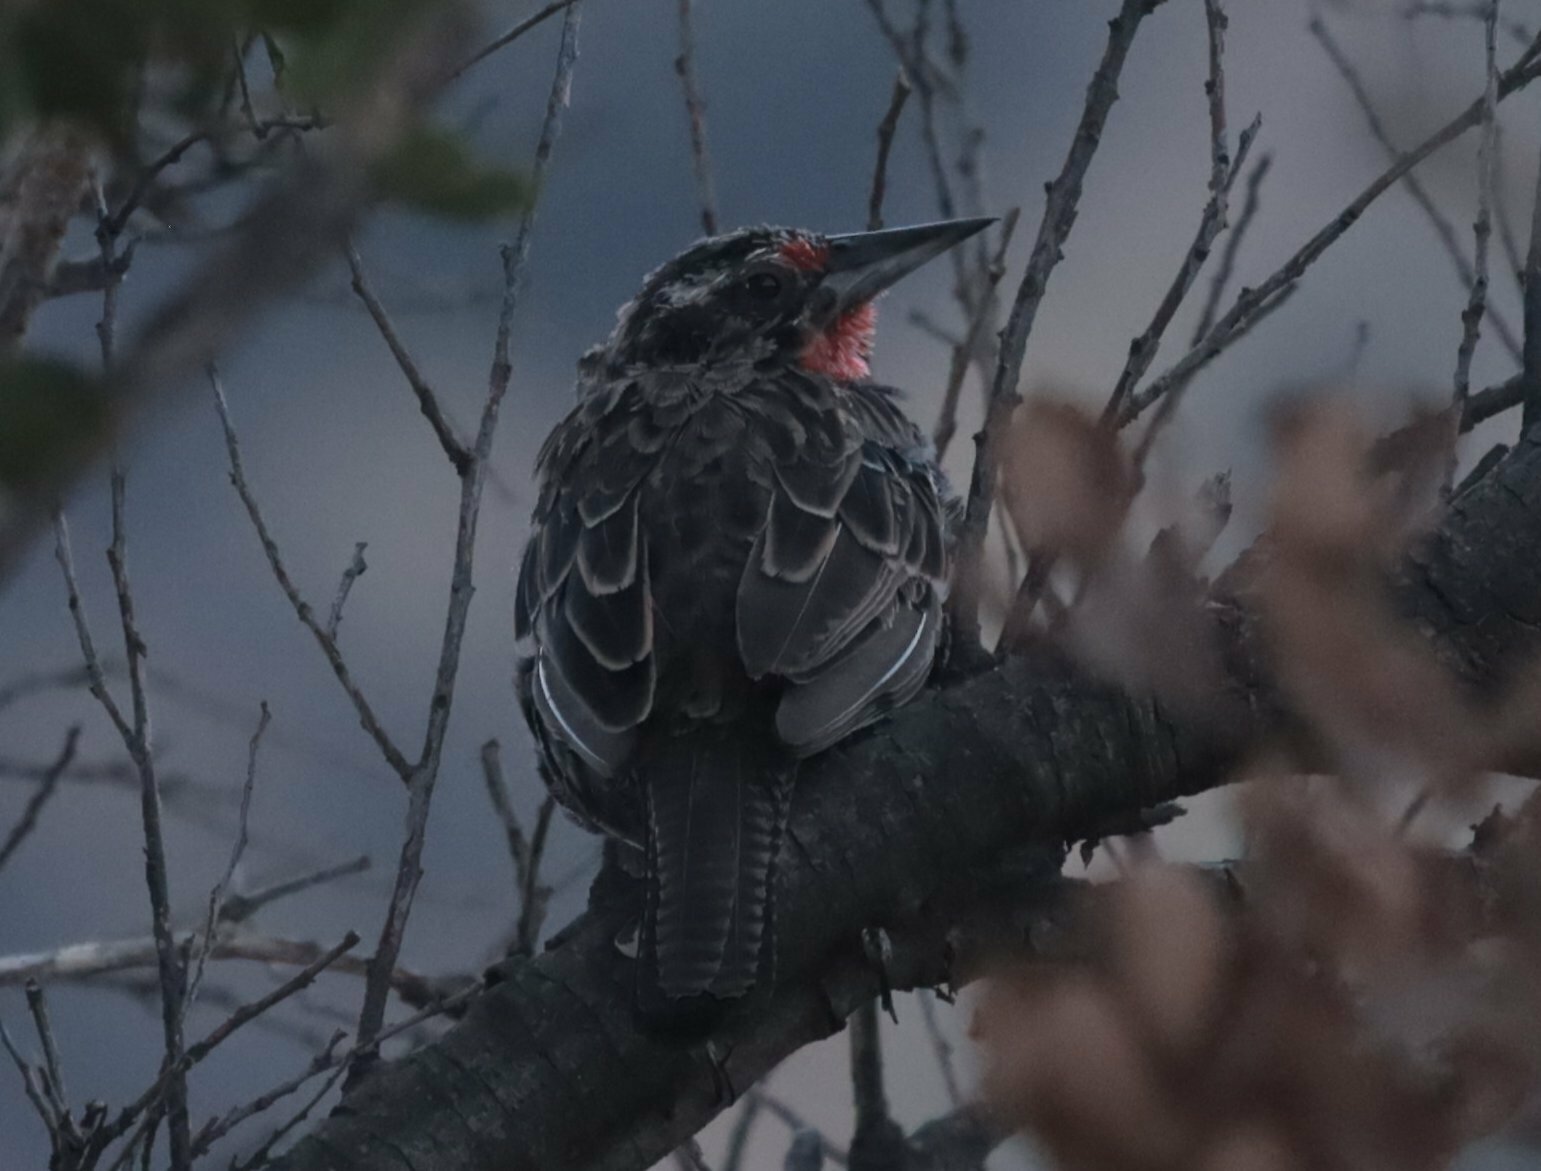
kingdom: Animalia
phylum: Chordata
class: Aves
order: Passeriformes
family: Icteridae
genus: Sturnella
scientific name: Sturnella loyca
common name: Long-tailed meadowlark
